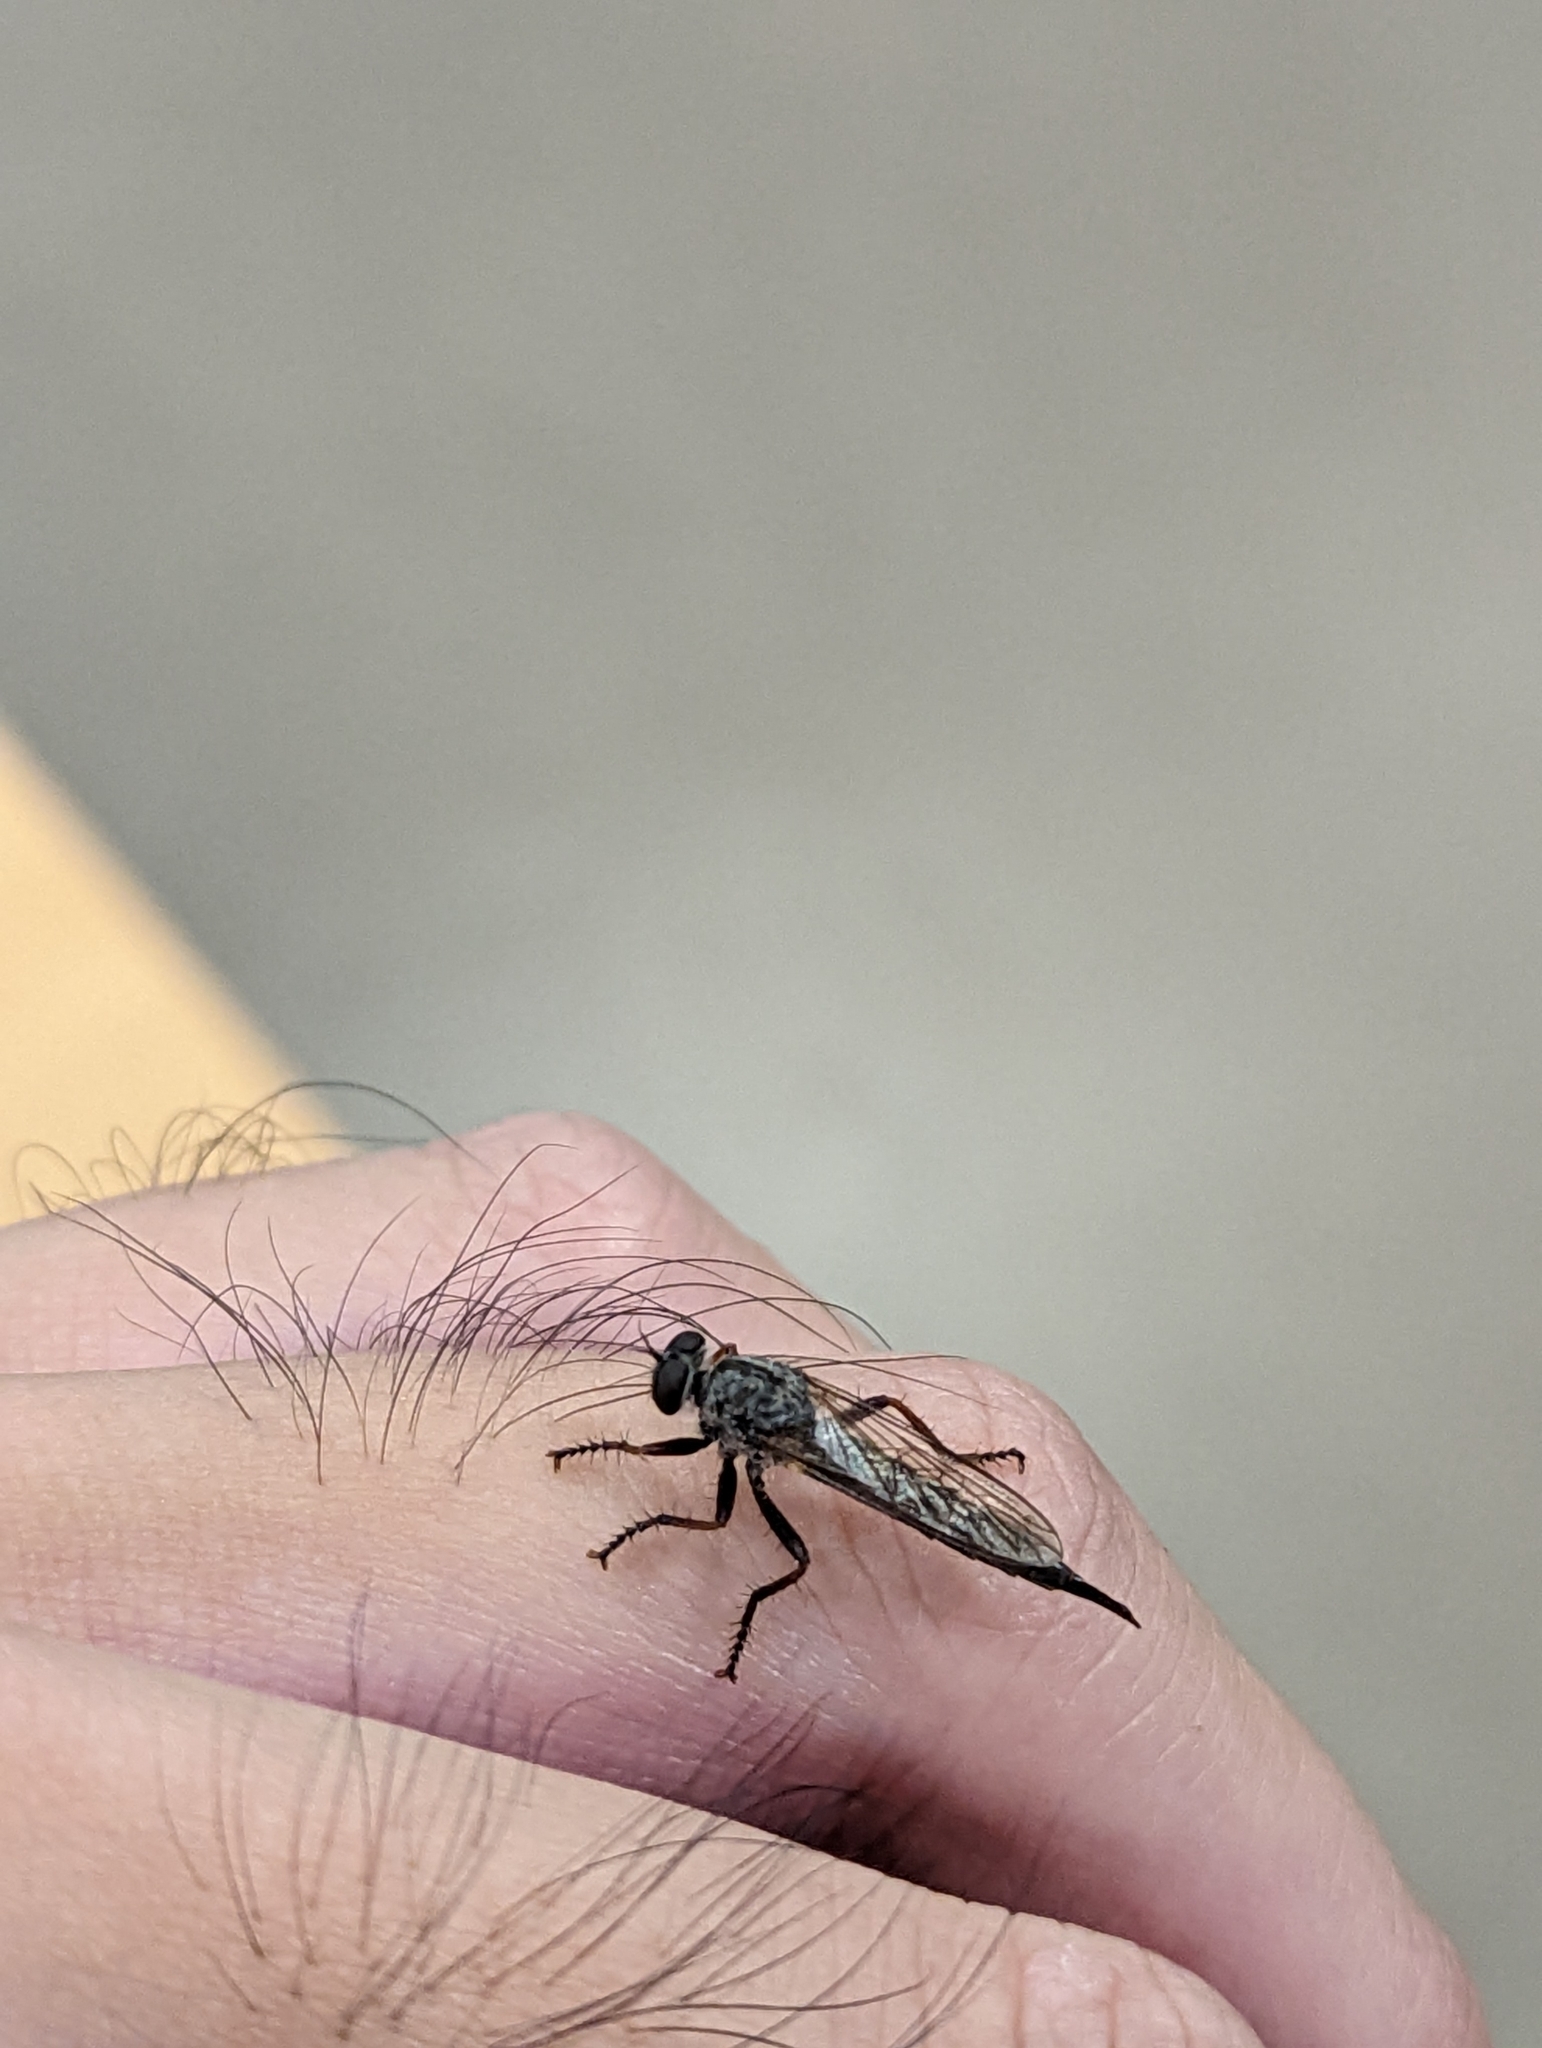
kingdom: Animalia
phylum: Arthropoda
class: Insecta
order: Diptera
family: Asilidae
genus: Neomochtherus
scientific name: Neomochtherus willistoni
